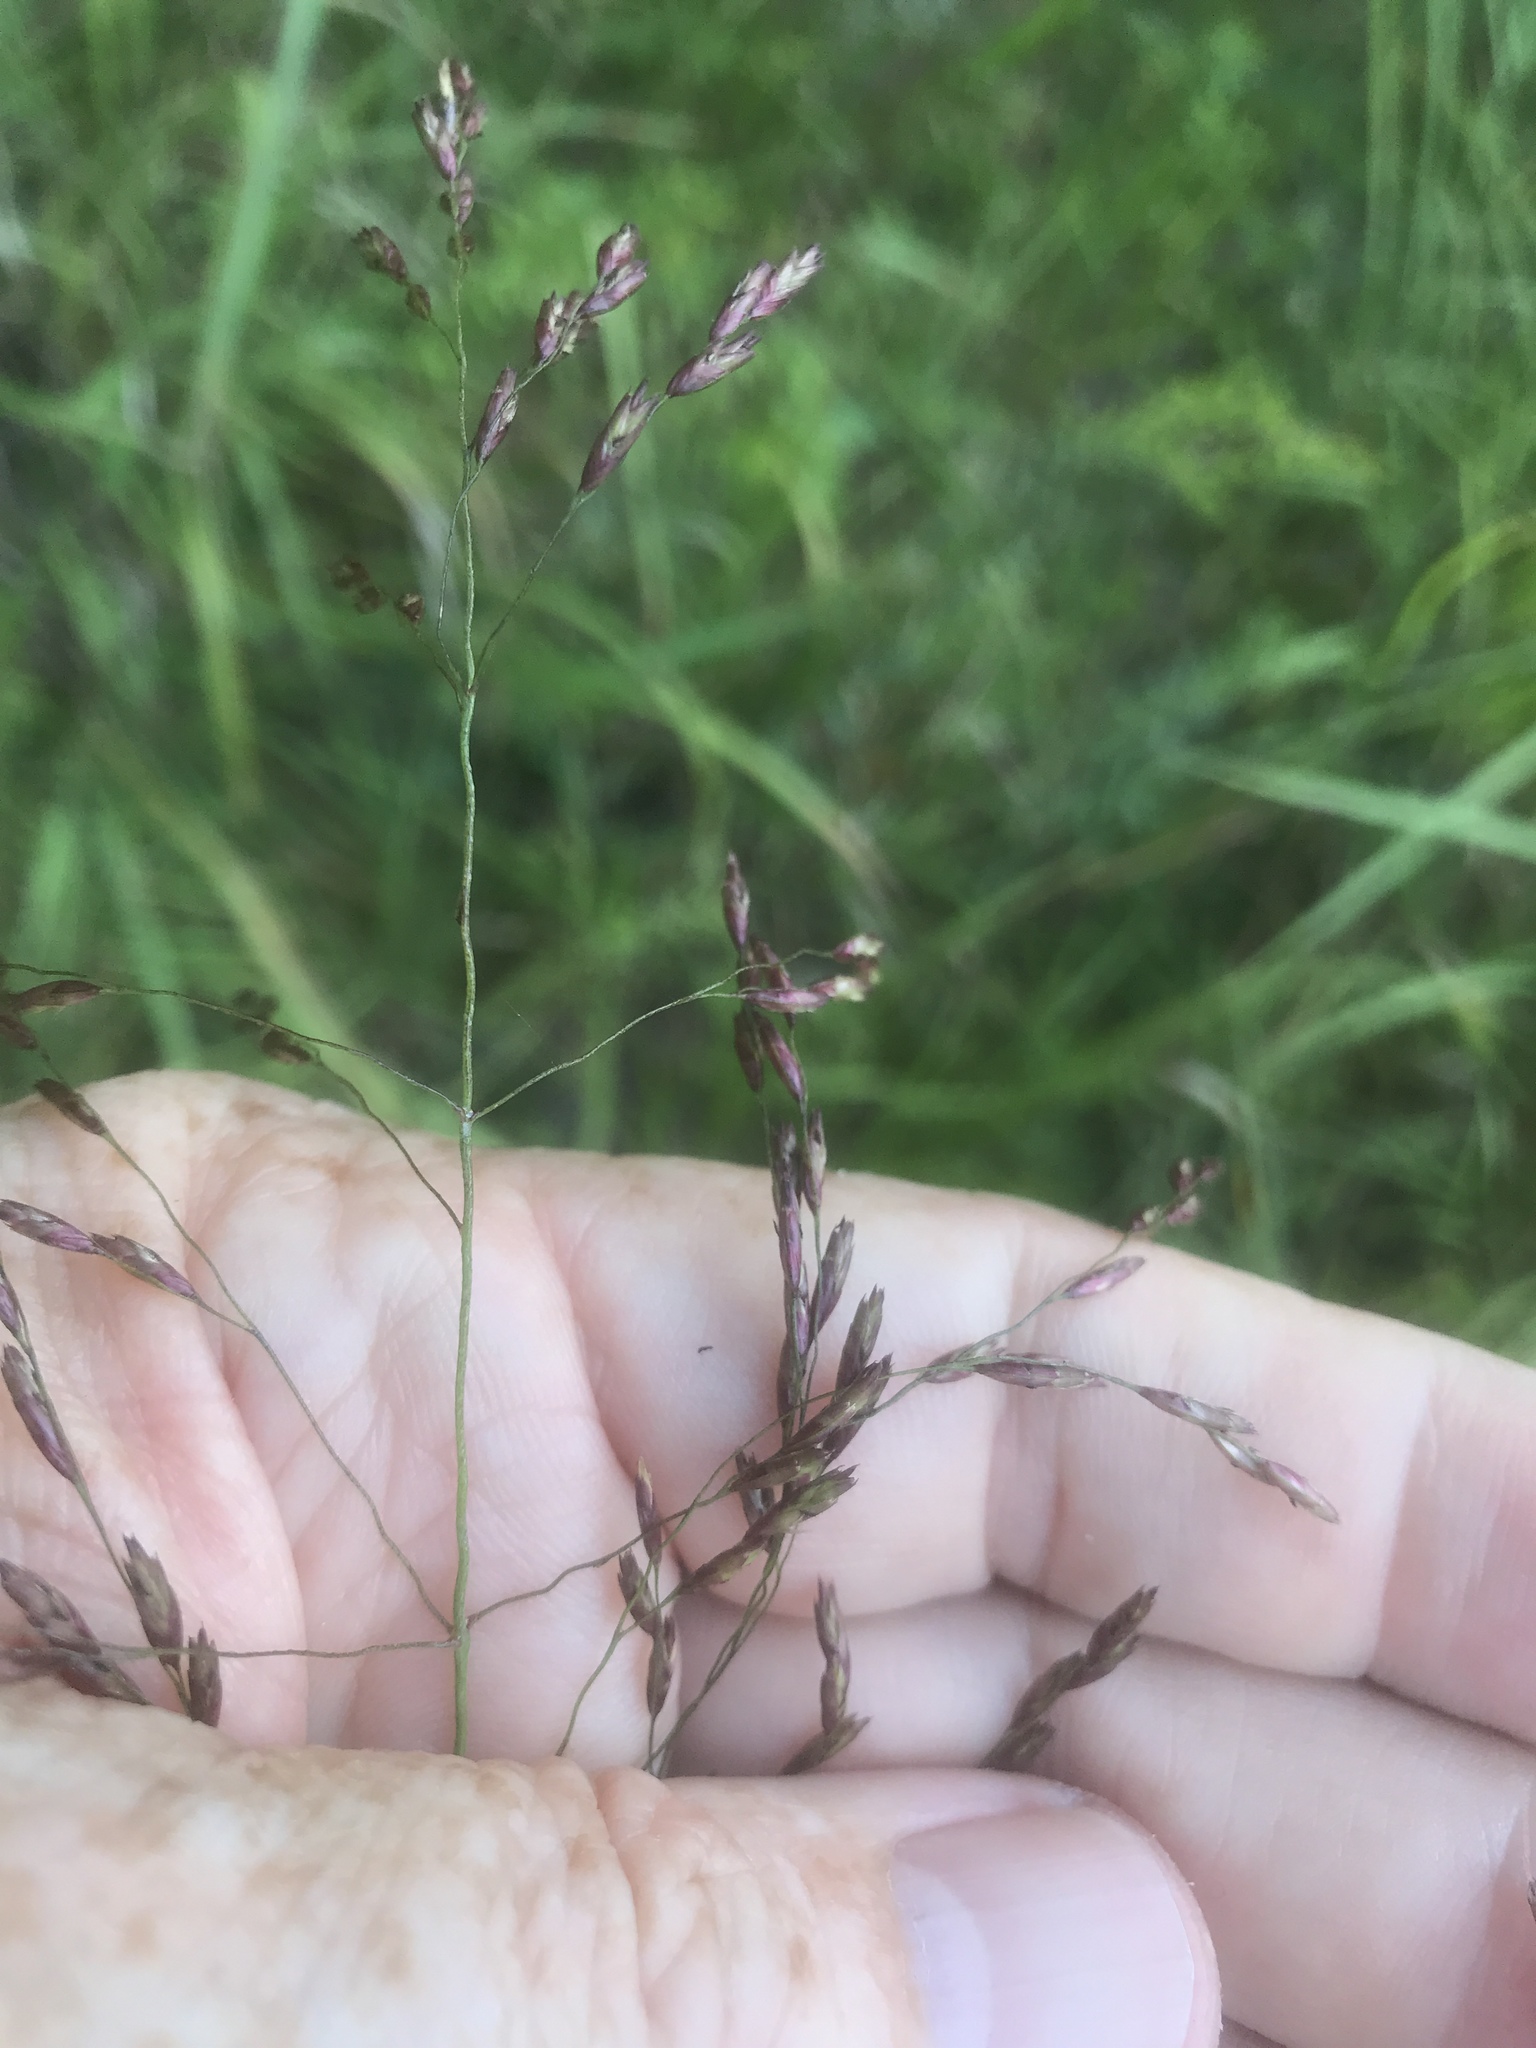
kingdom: Plantae
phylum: Tracheophyta
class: Liliopsida
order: Poales
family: Poaceae
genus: Tridens
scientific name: Tridens flavus
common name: Purpletop
